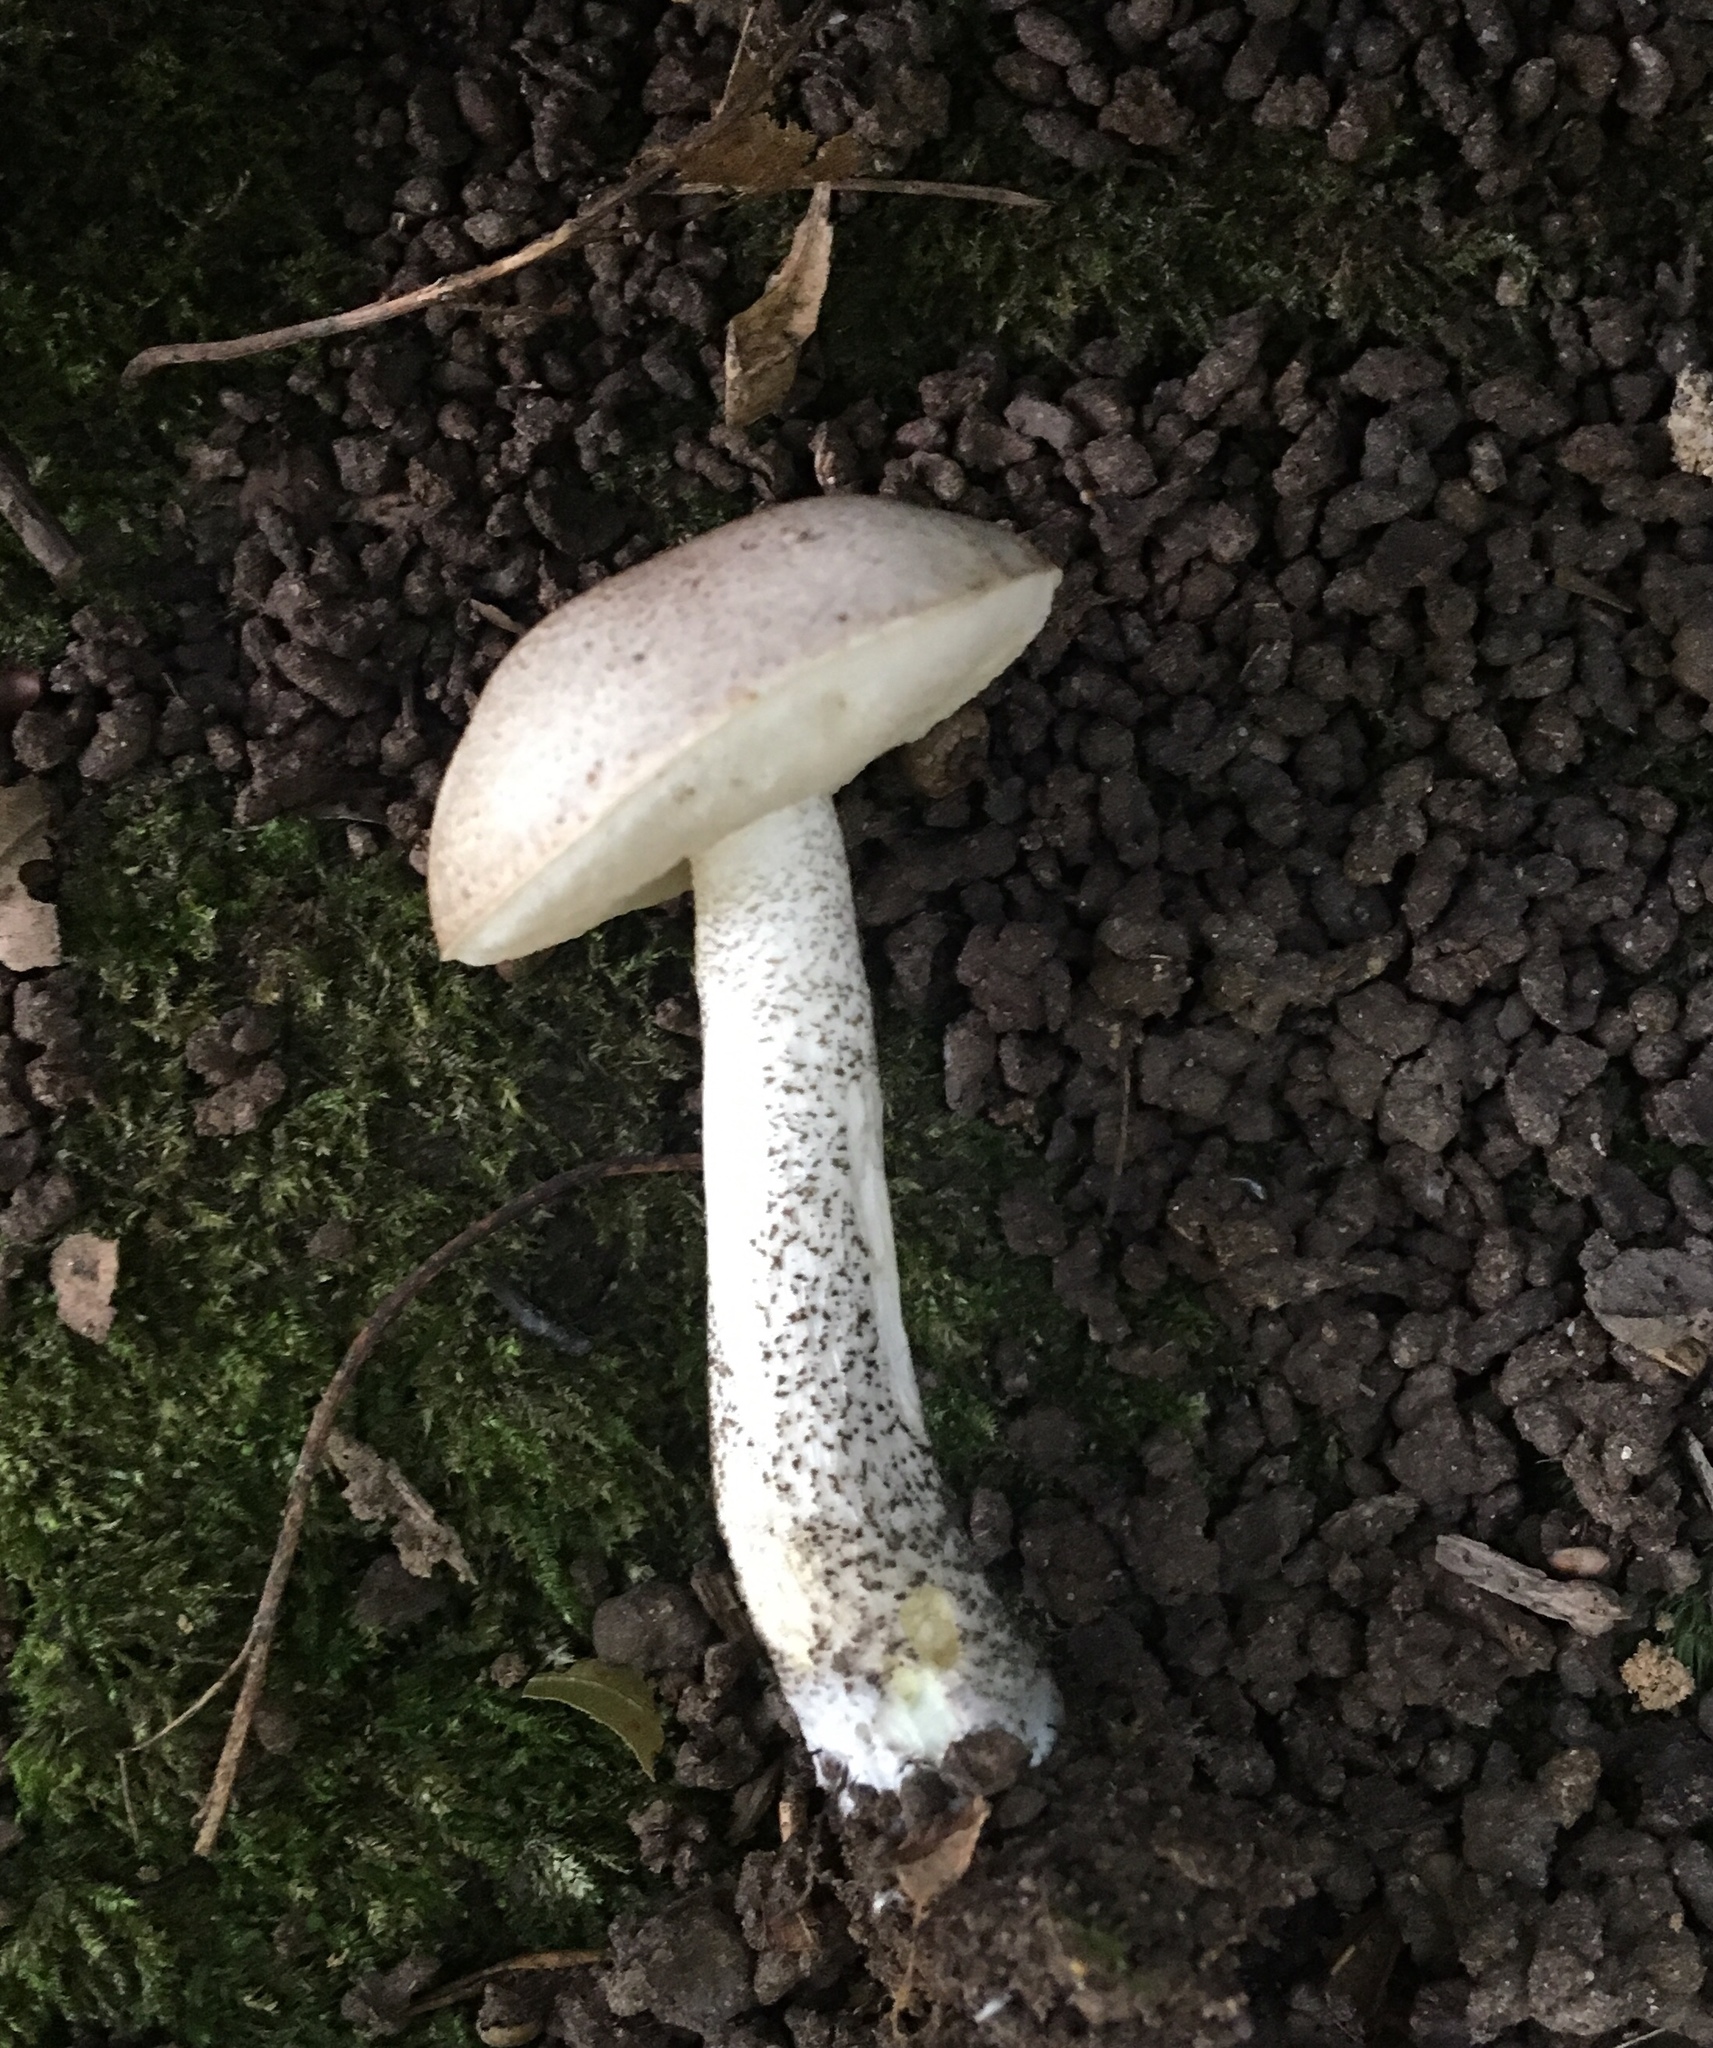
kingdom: Fungi
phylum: Basidiomycota
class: Agaricomycetes
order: Boletales
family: Boletaceae
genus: Leccinum
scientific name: Leccinum snellii
